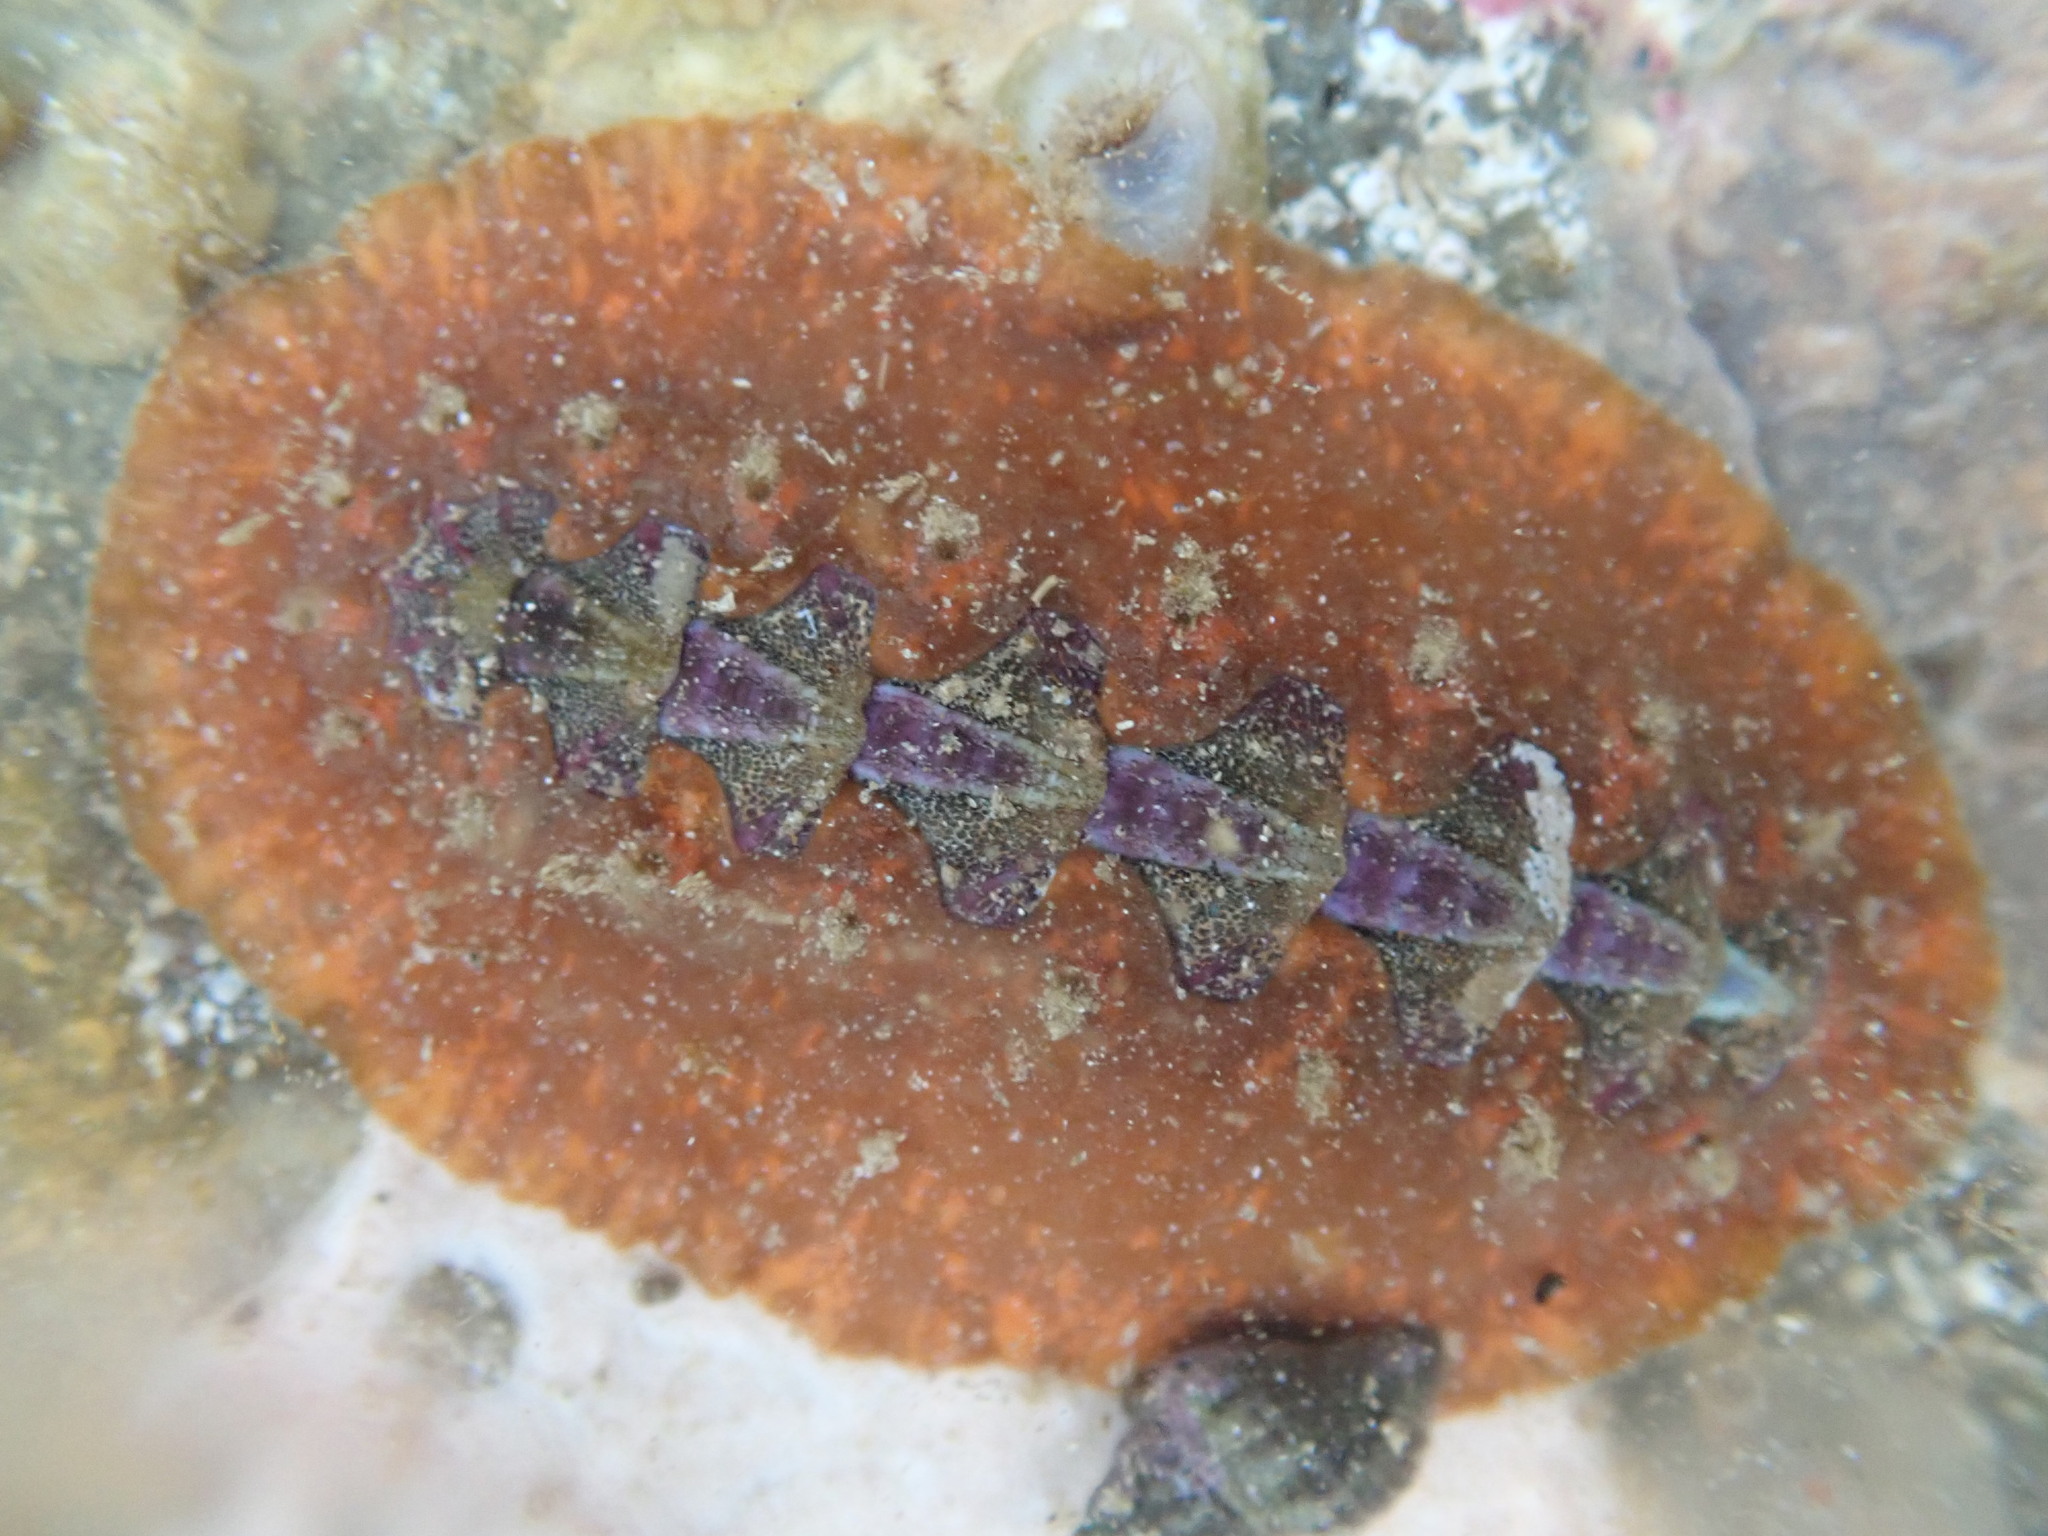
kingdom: Animalia
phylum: Mollusca
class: Polyplacophora
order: Chitonida
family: Acanthochitonidae
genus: Notoplax
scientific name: Notoplax violacea
